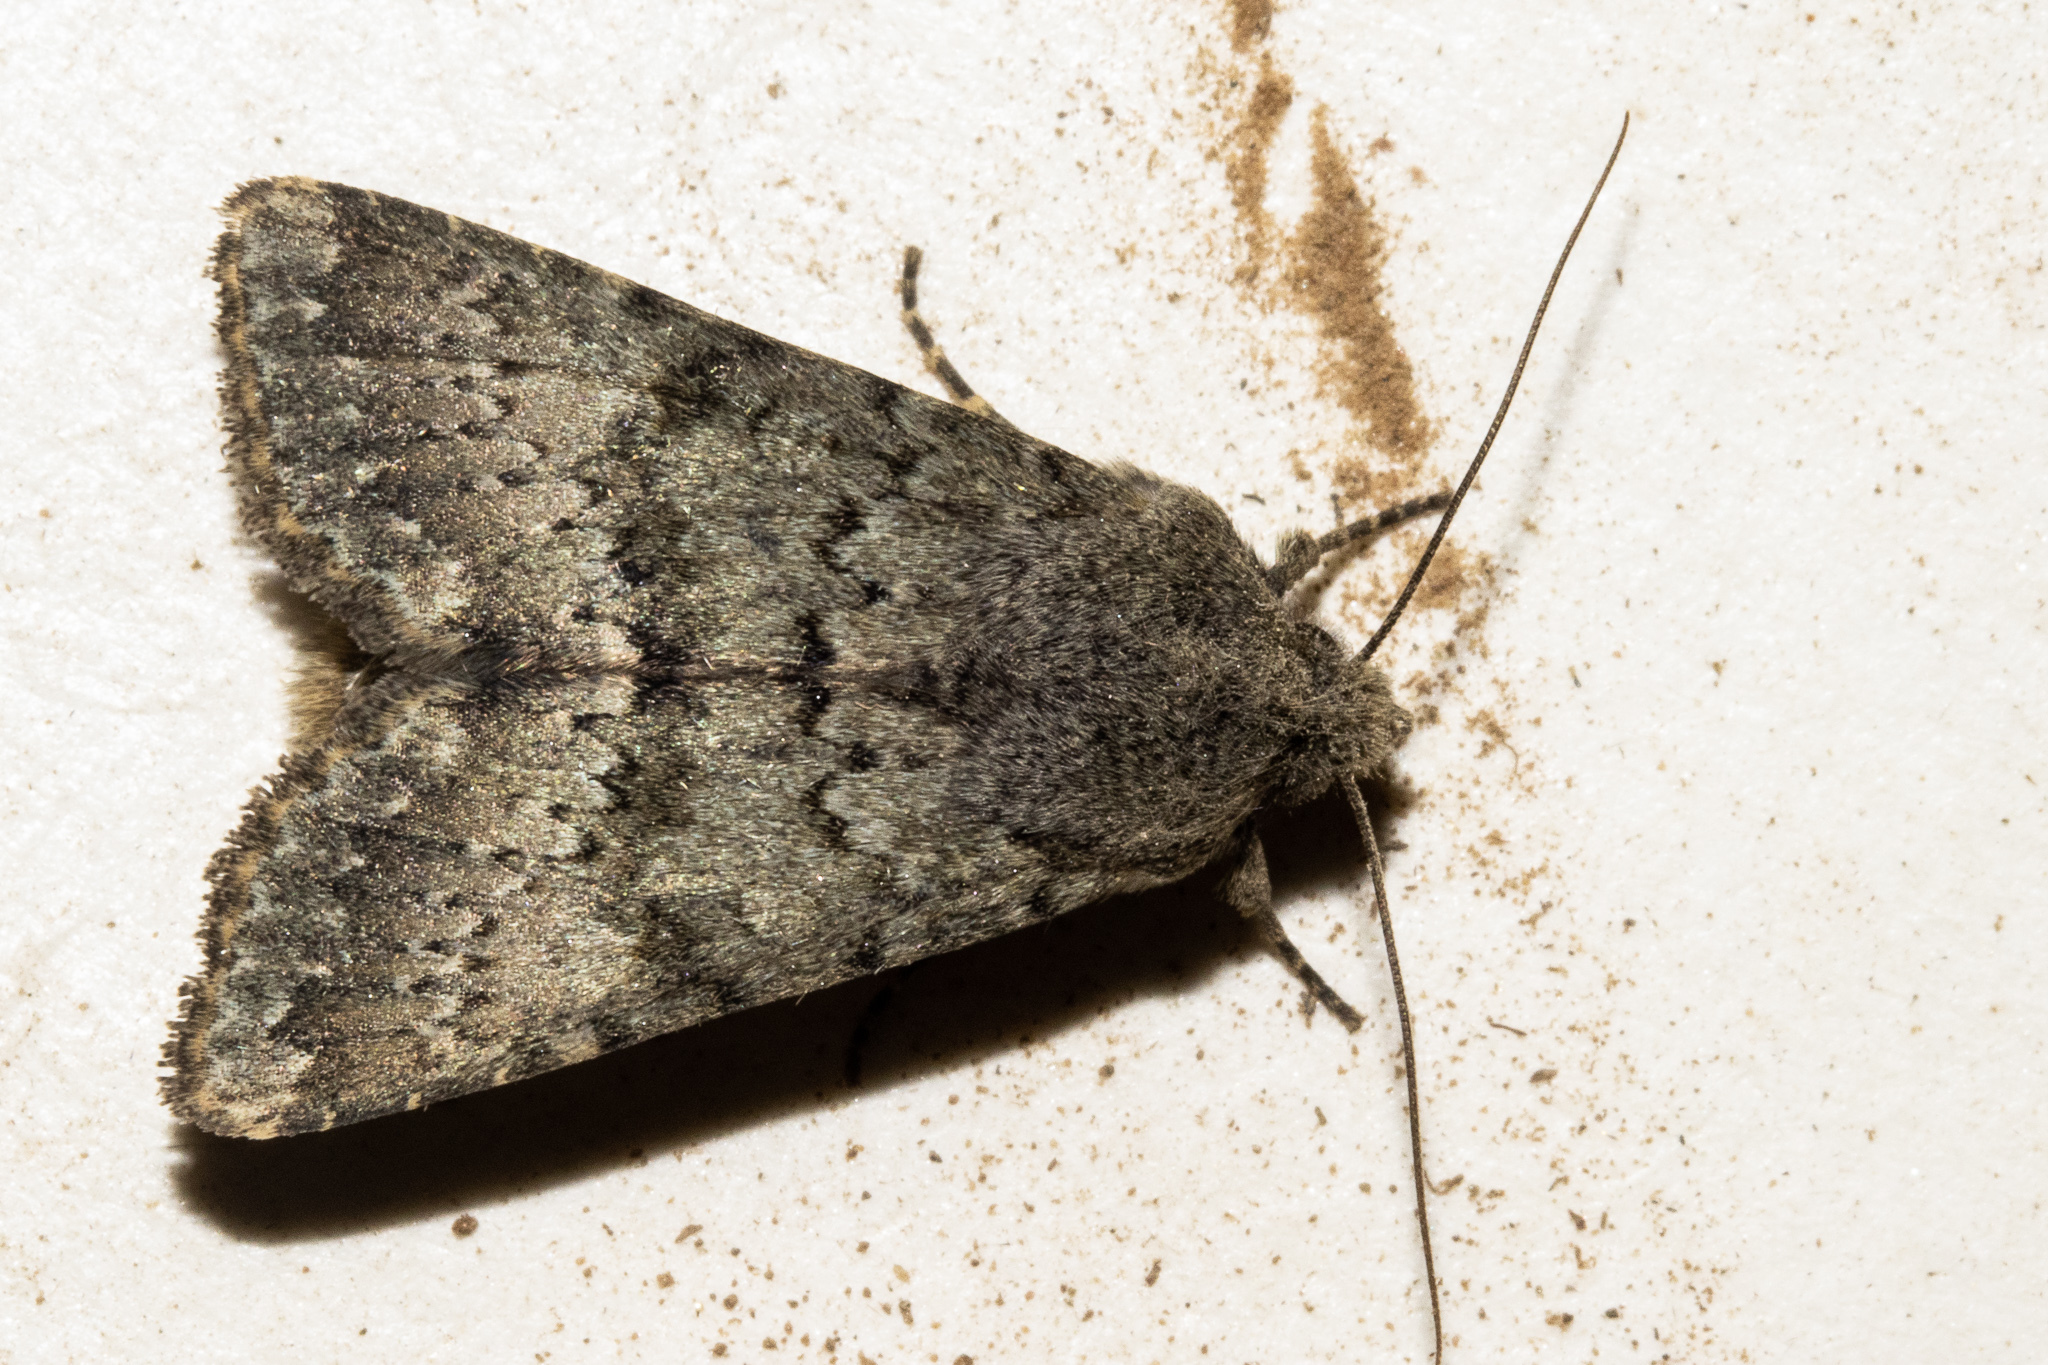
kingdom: Animalia
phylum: Arthropoda
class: Insecta
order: Lepidoptera
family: Noctuidae
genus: Ichneutica
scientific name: Ichneutica moderata
